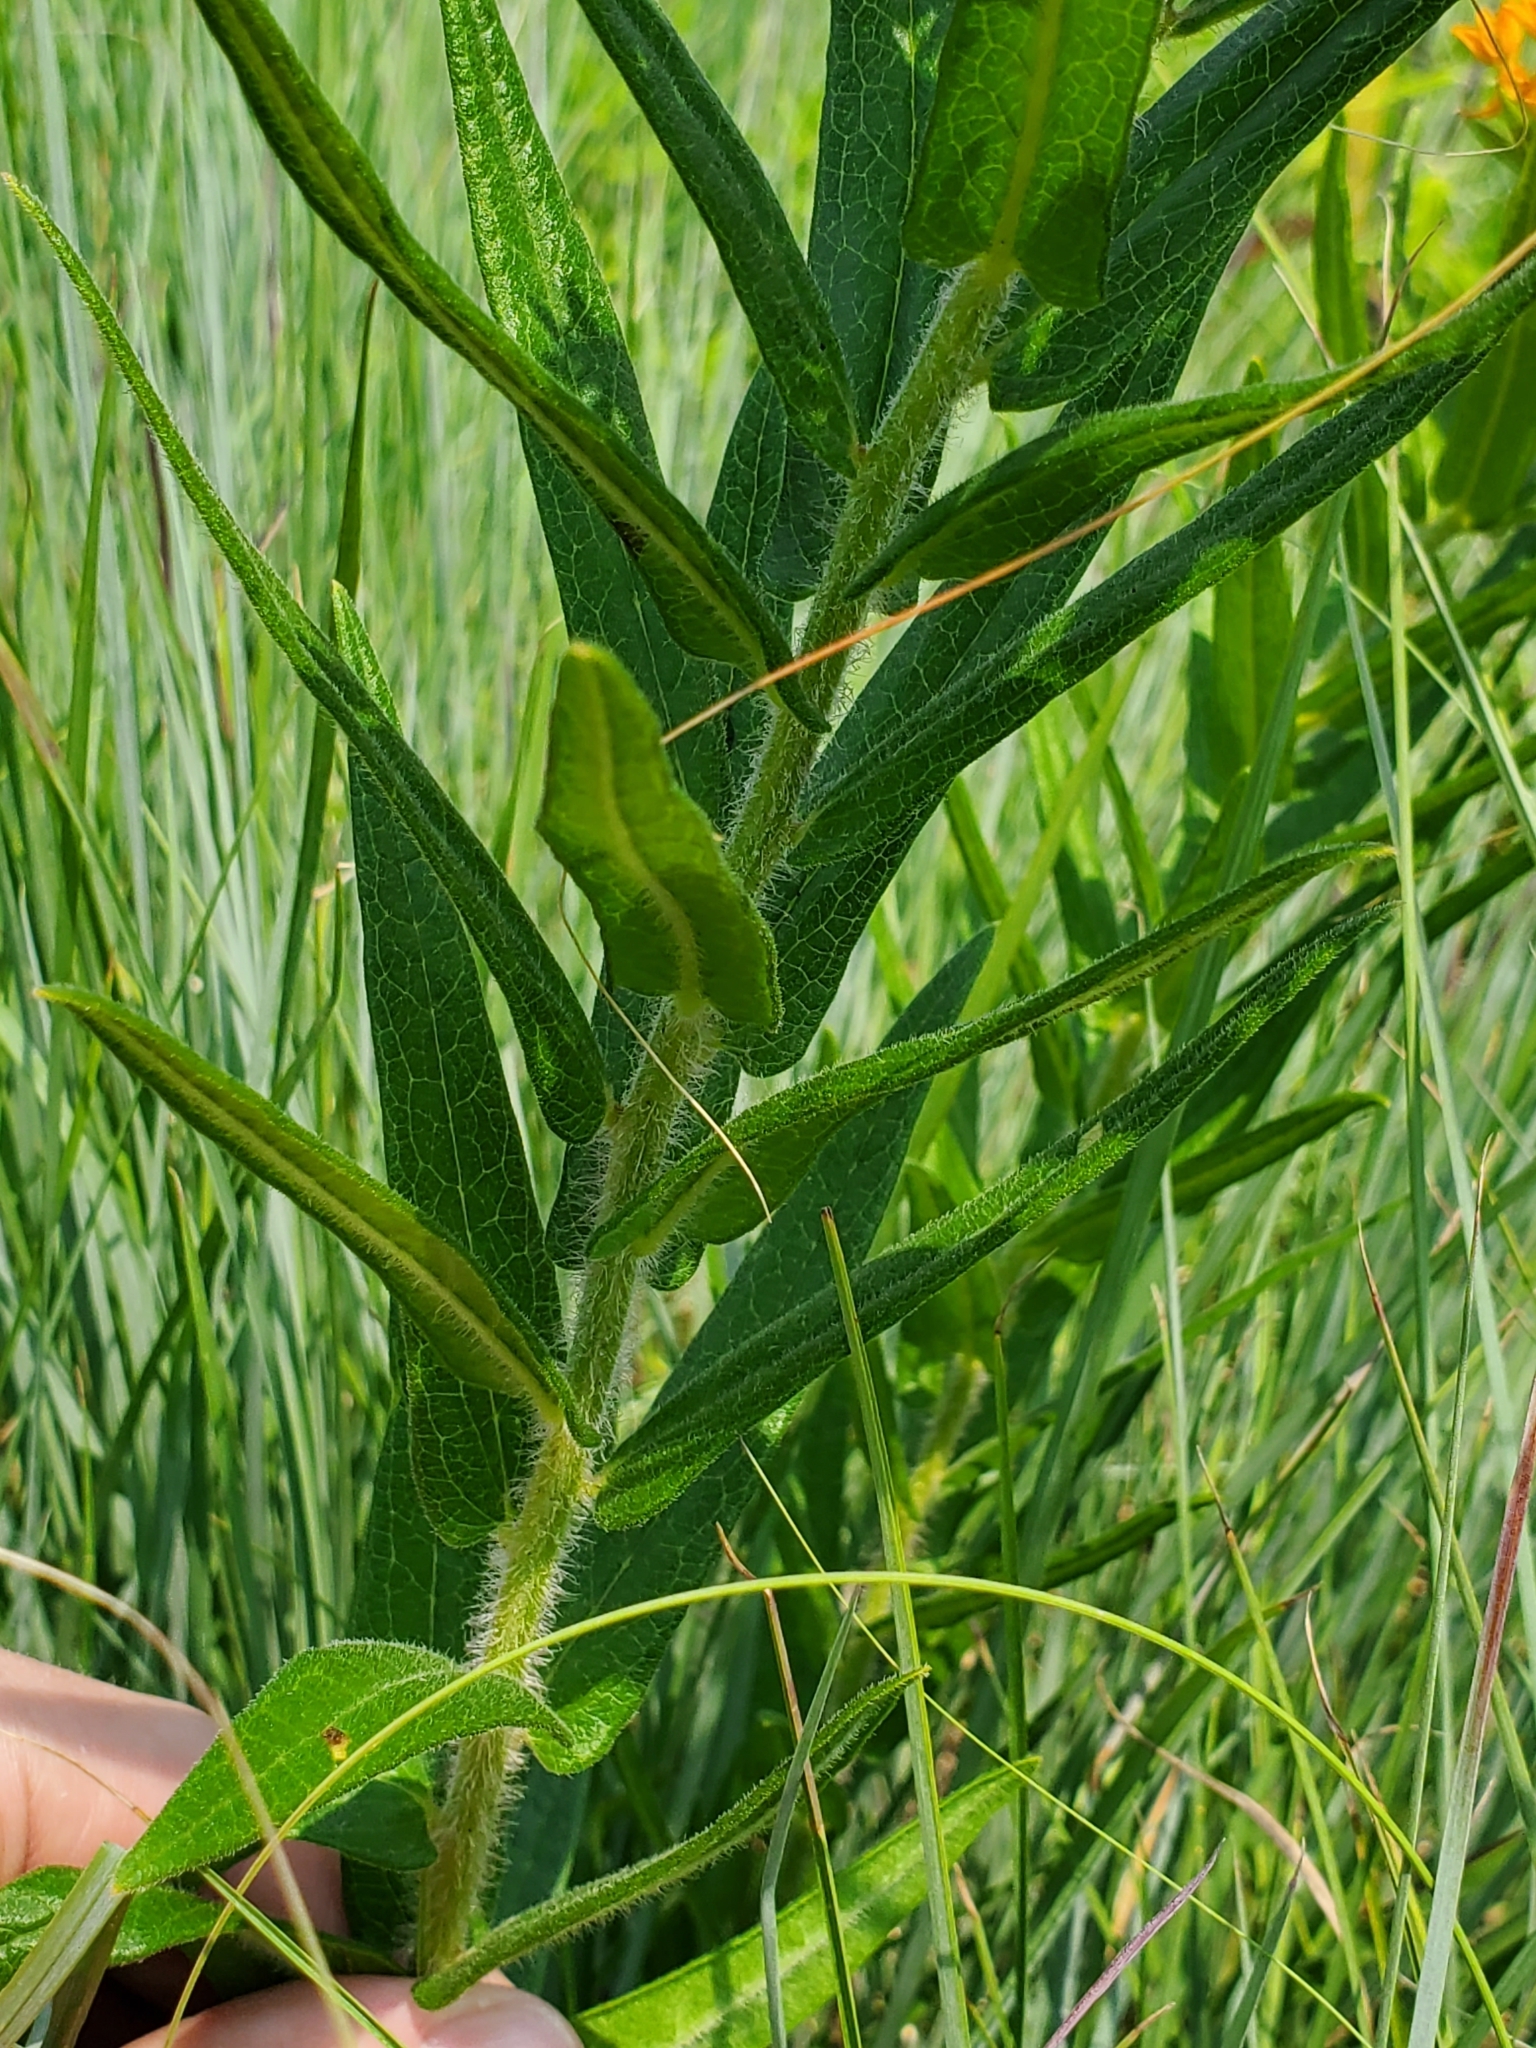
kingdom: Plantae
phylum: Tracheophyta
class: Magnoliopsida
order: Gentianales
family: Apocynaceae
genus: Asclepias
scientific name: Asclepias tuberosa
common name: Butterfly milkweed
